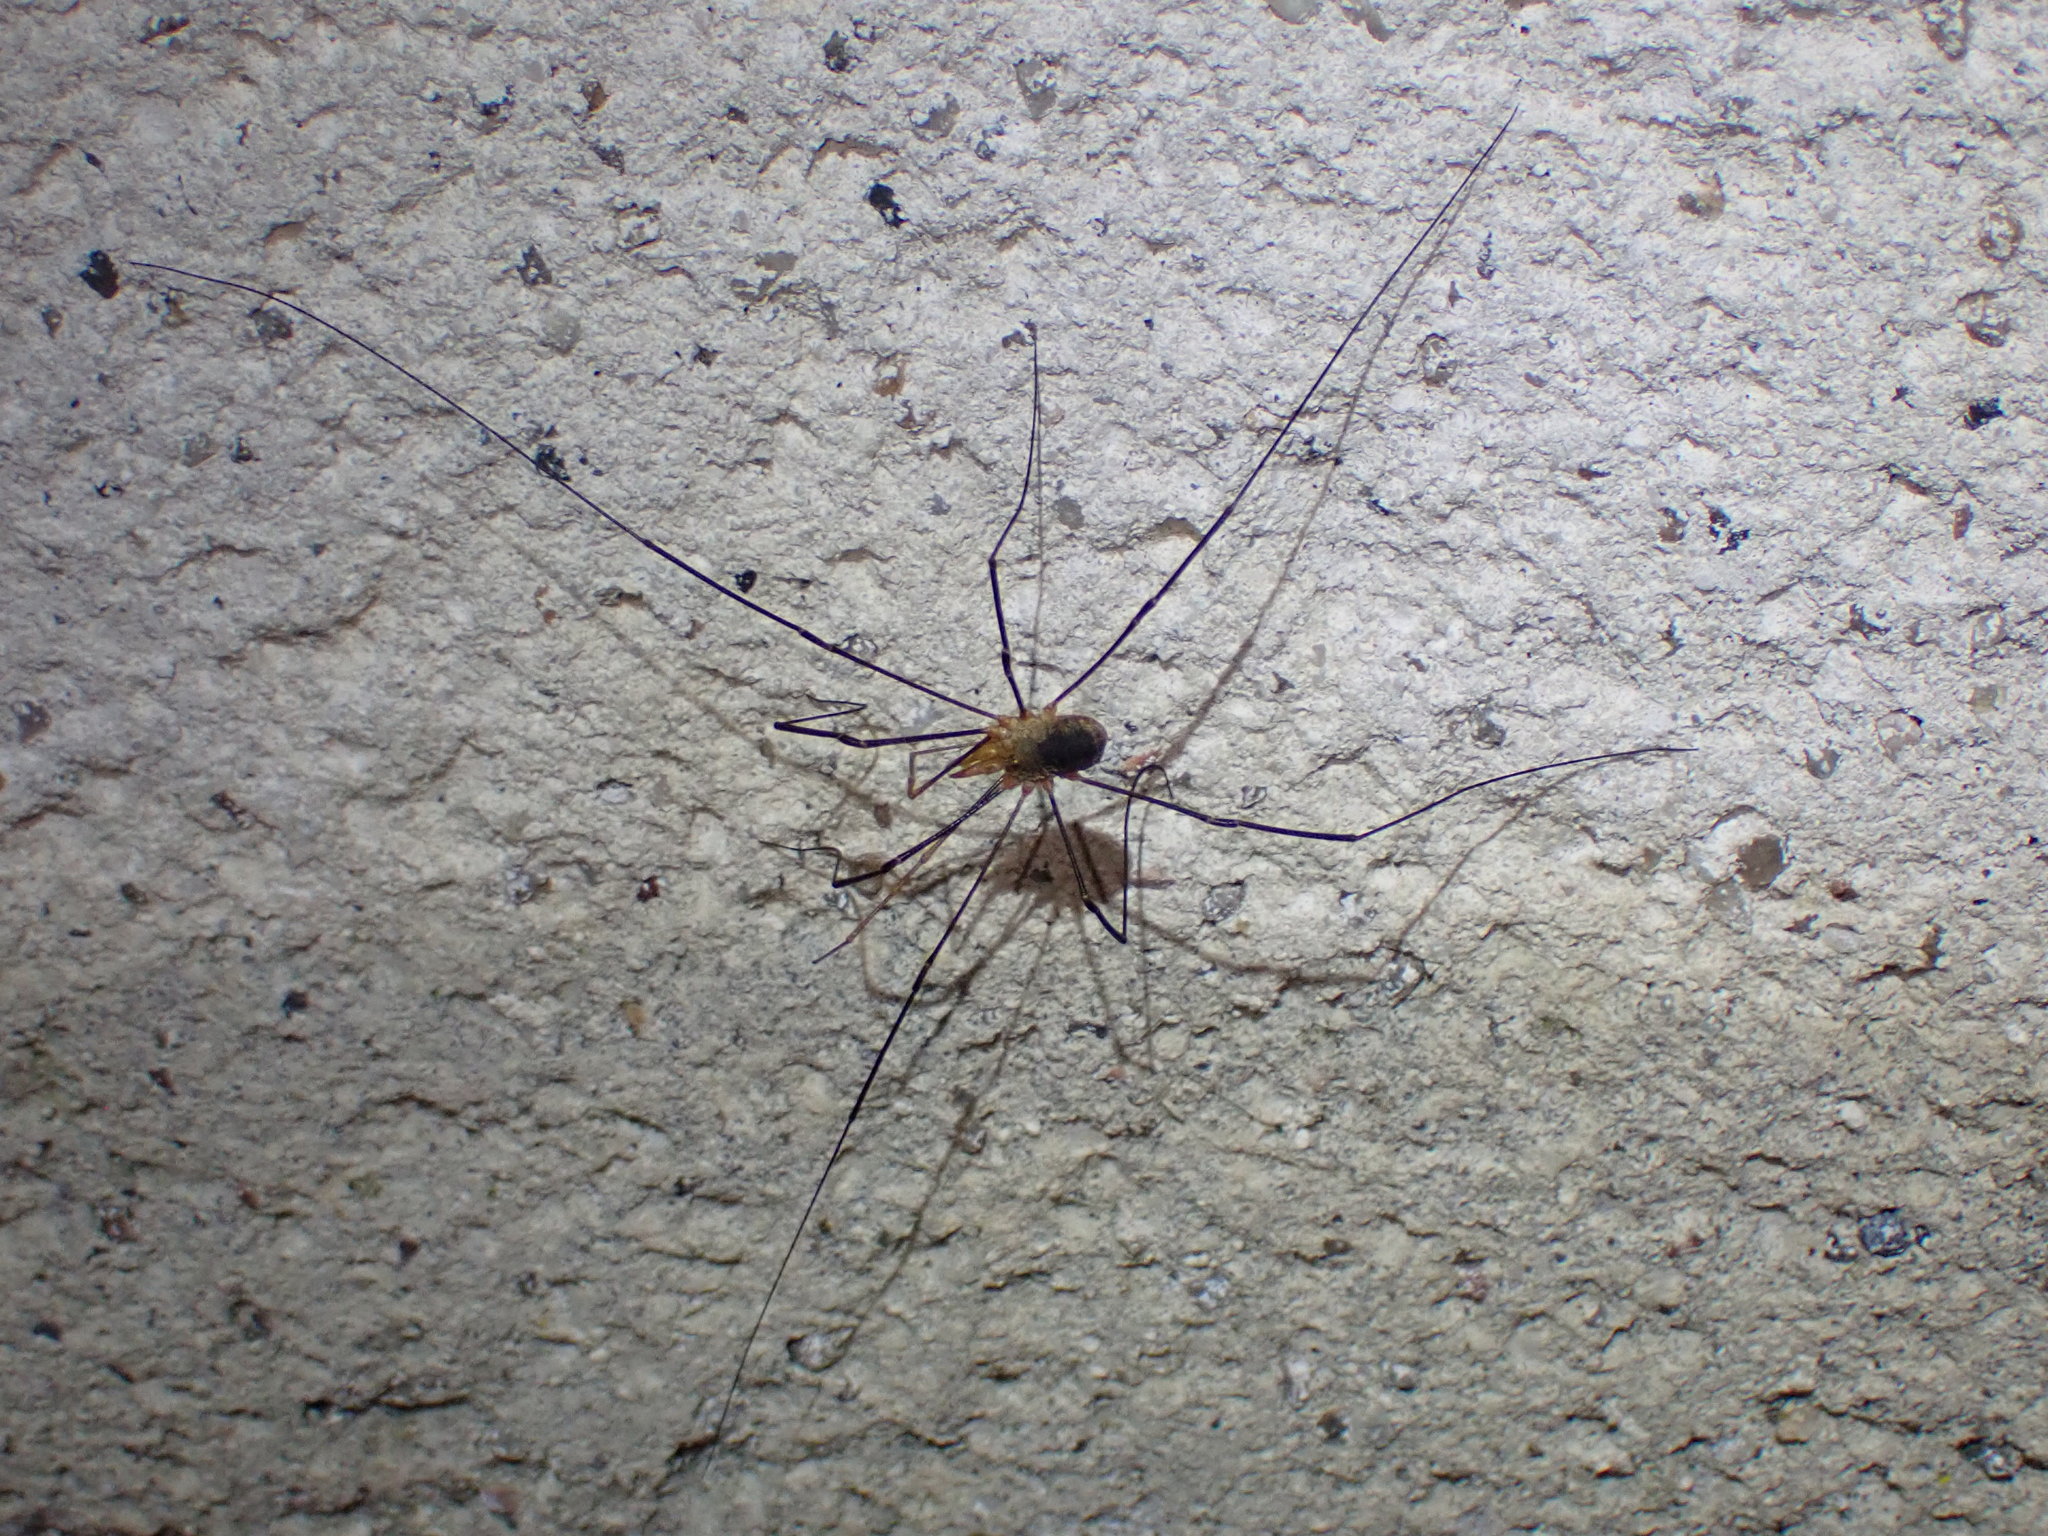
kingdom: Animalia
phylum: Arthropoda
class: Arachnida
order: Opiliones
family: Phalangiidae
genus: Phalangium
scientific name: Phalangium opilio
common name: Daddy longleg
